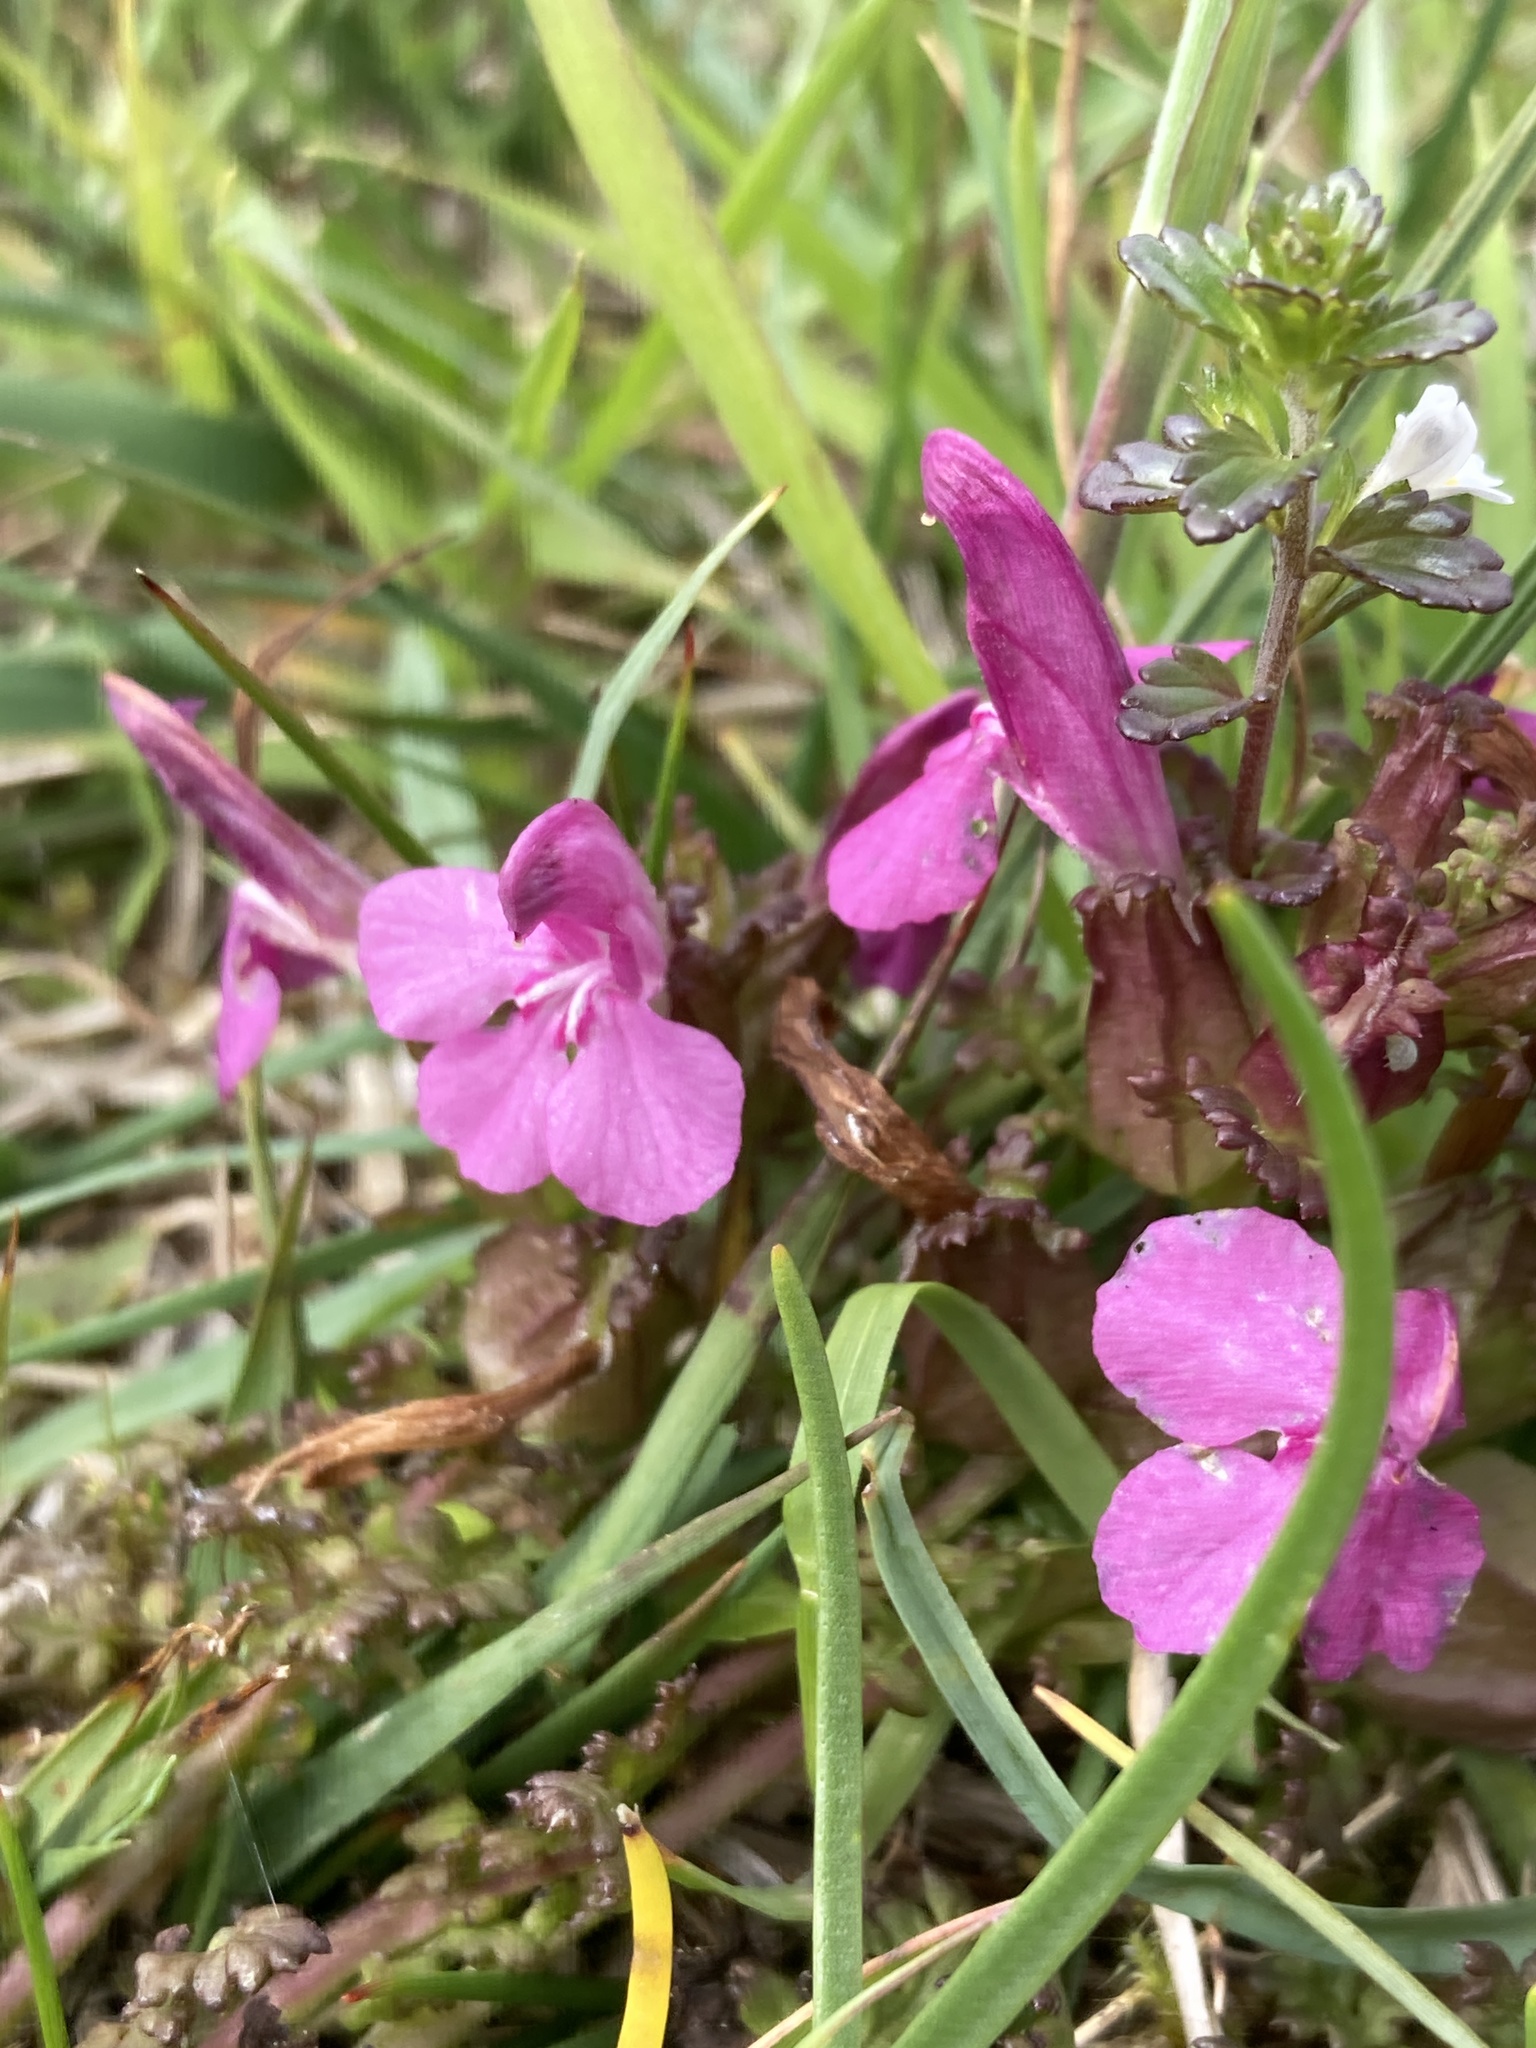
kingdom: Plantae
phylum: Tracheophyta
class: Magnoliopsida
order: Lamiales
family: Orobanchaceae
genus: Pedicularis
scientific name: Pedicularis sylvatica
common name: Lousewort
